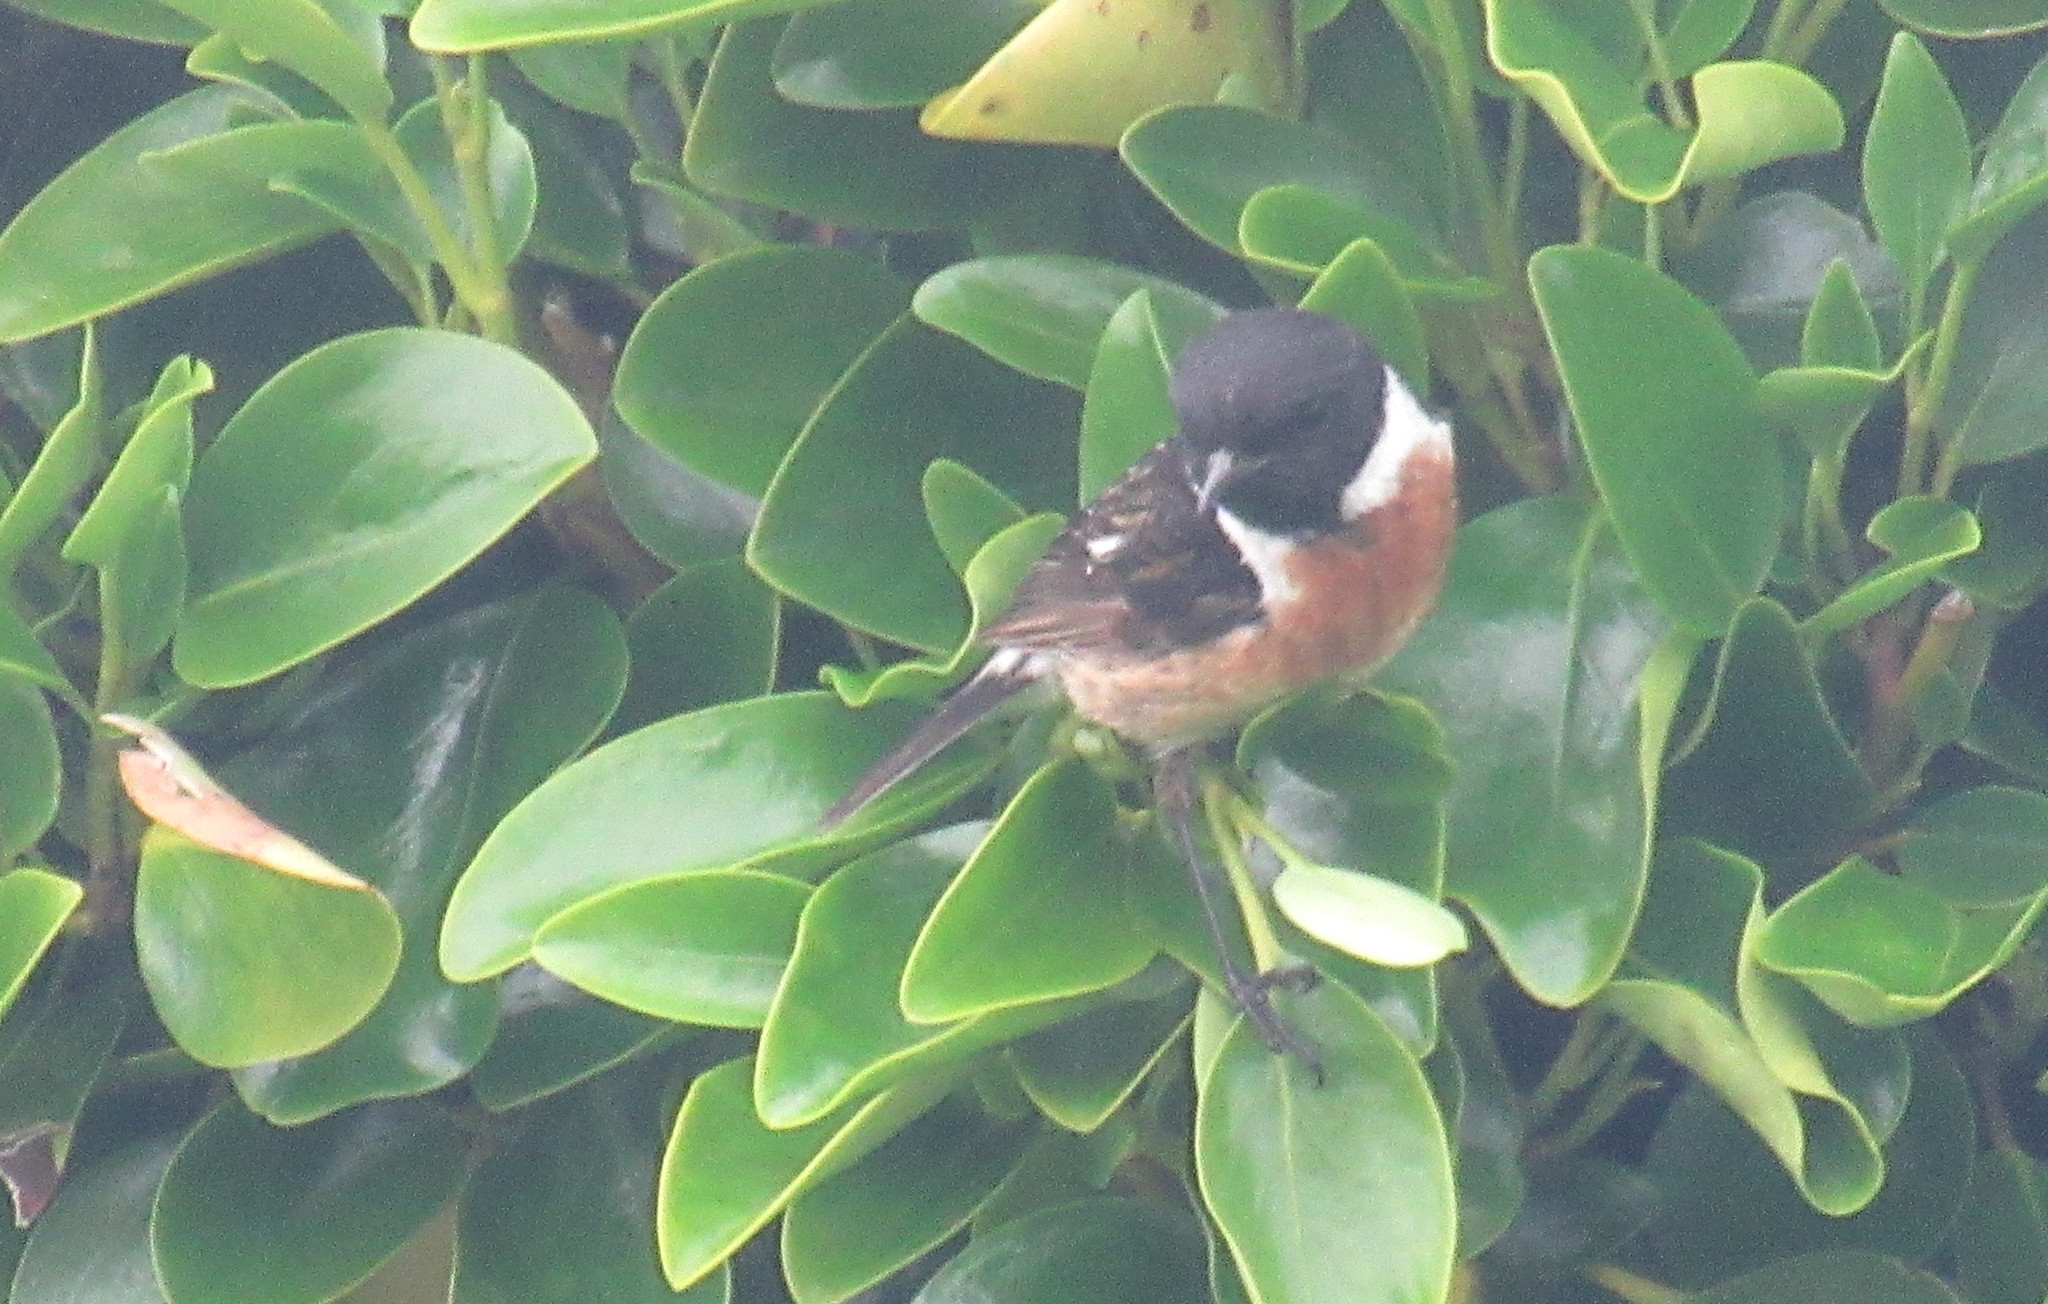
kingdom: Animalia
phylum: Chordata
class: Aves
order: Passeriformes
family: Muscicapidae
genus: Saxicola
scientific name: Saxicola rubicola
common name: European stonechat
